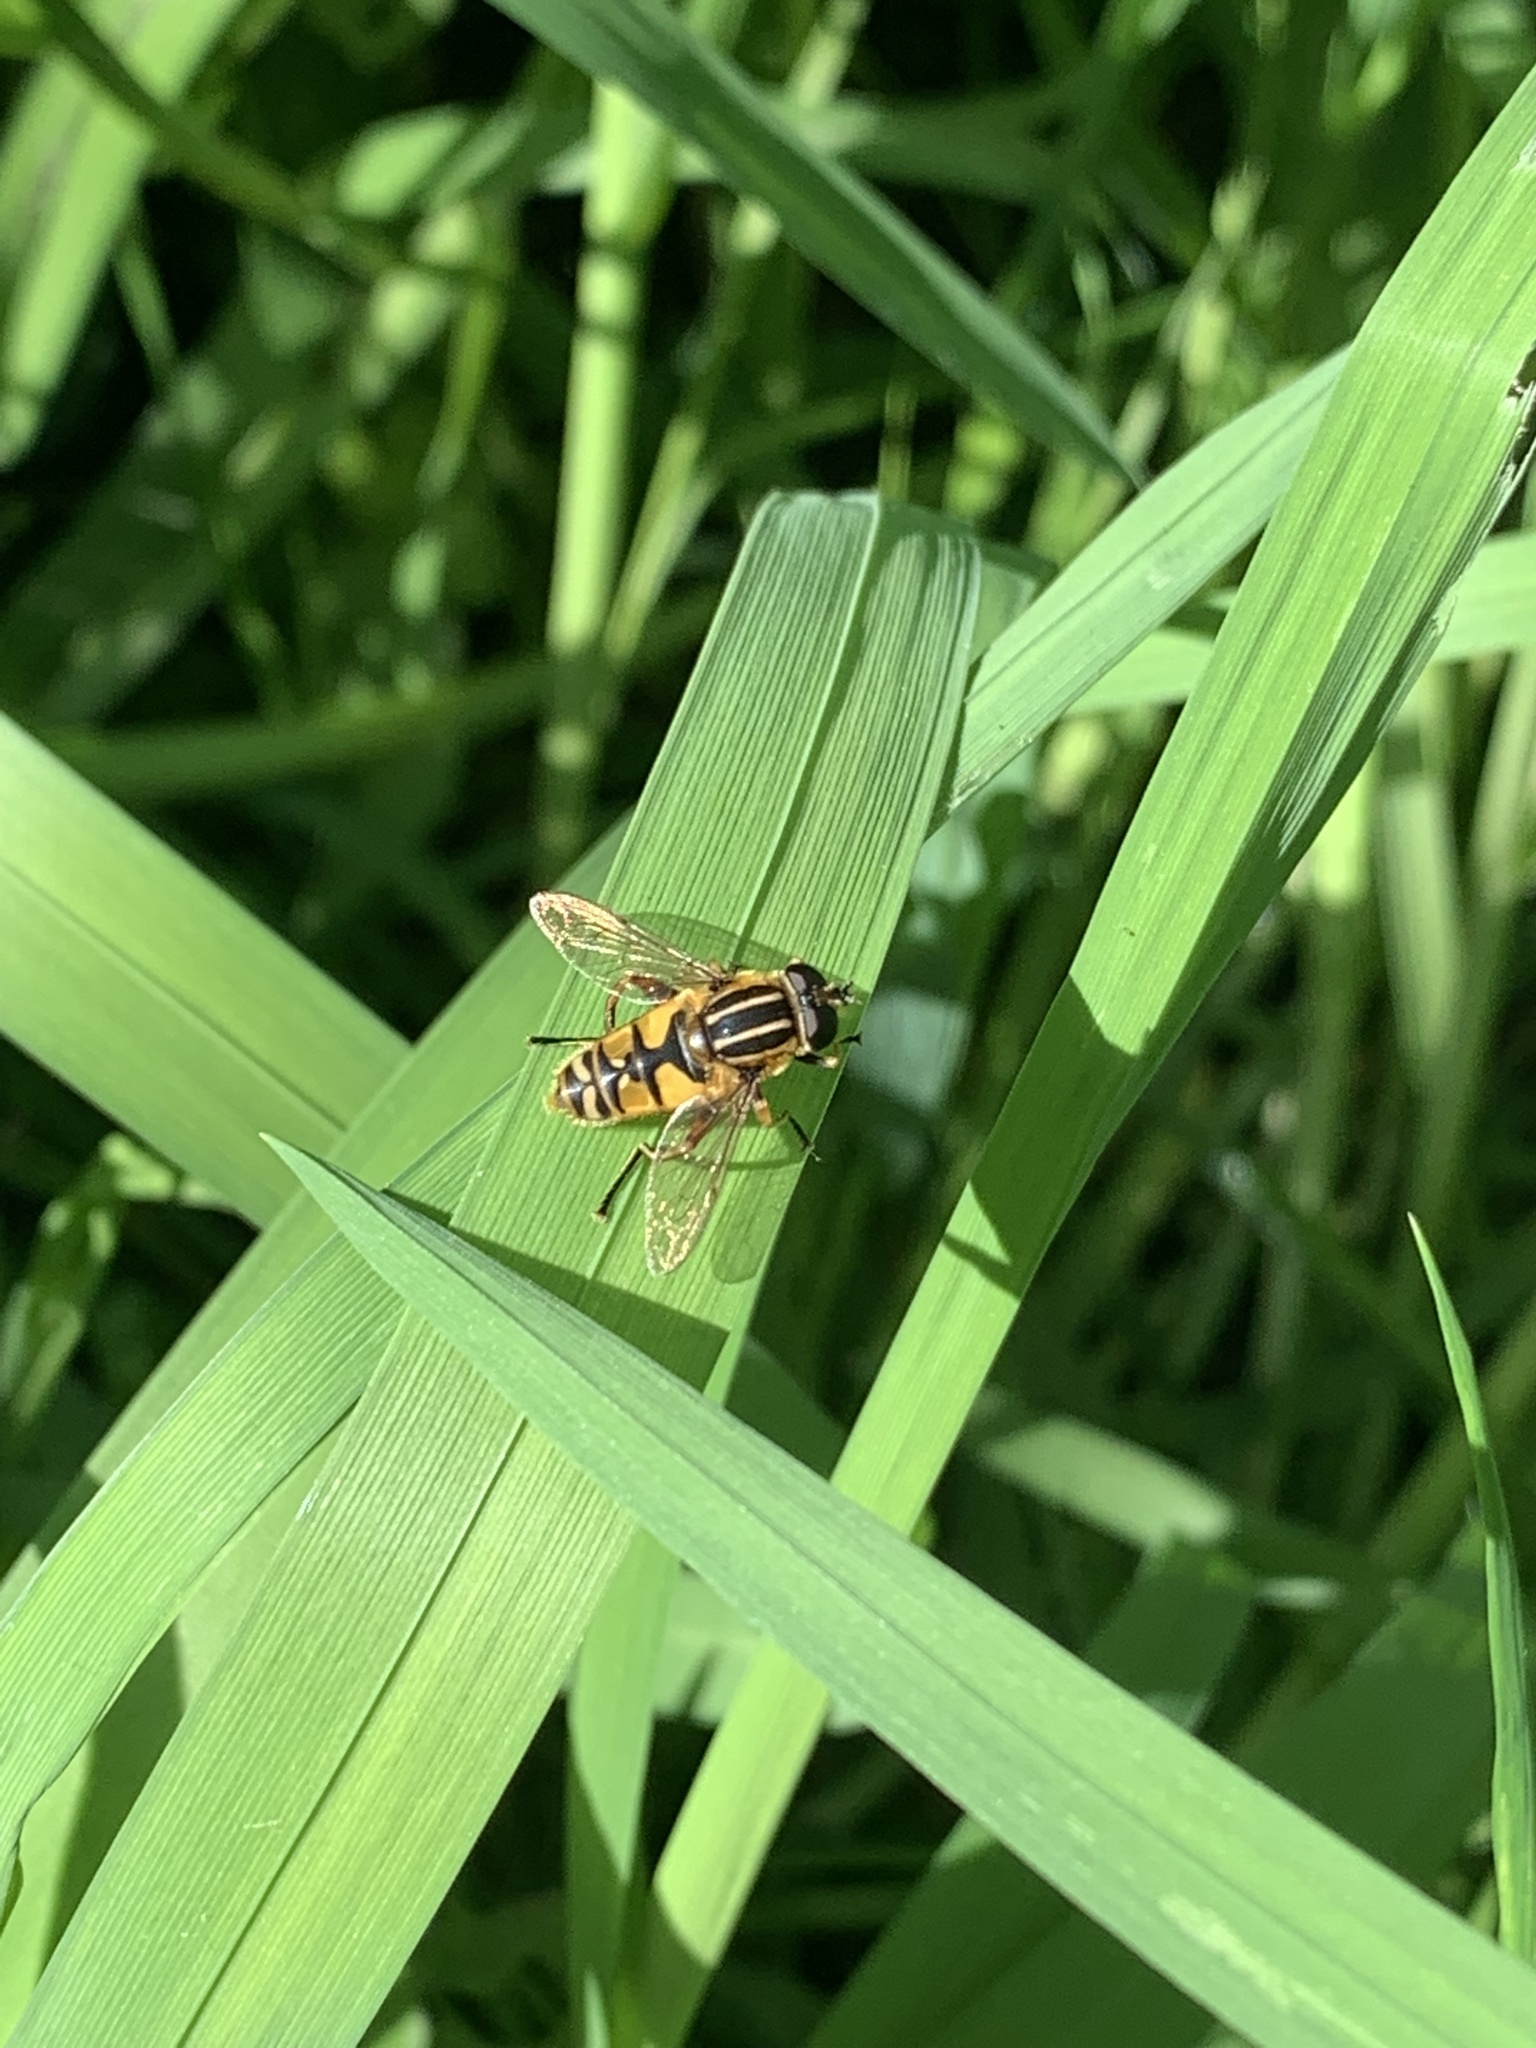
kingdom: Animalia
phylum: Arthropoda
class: Insecta
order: Diptera
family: Syrphidae
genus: Helophilus
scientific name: Helophilus pendulus
